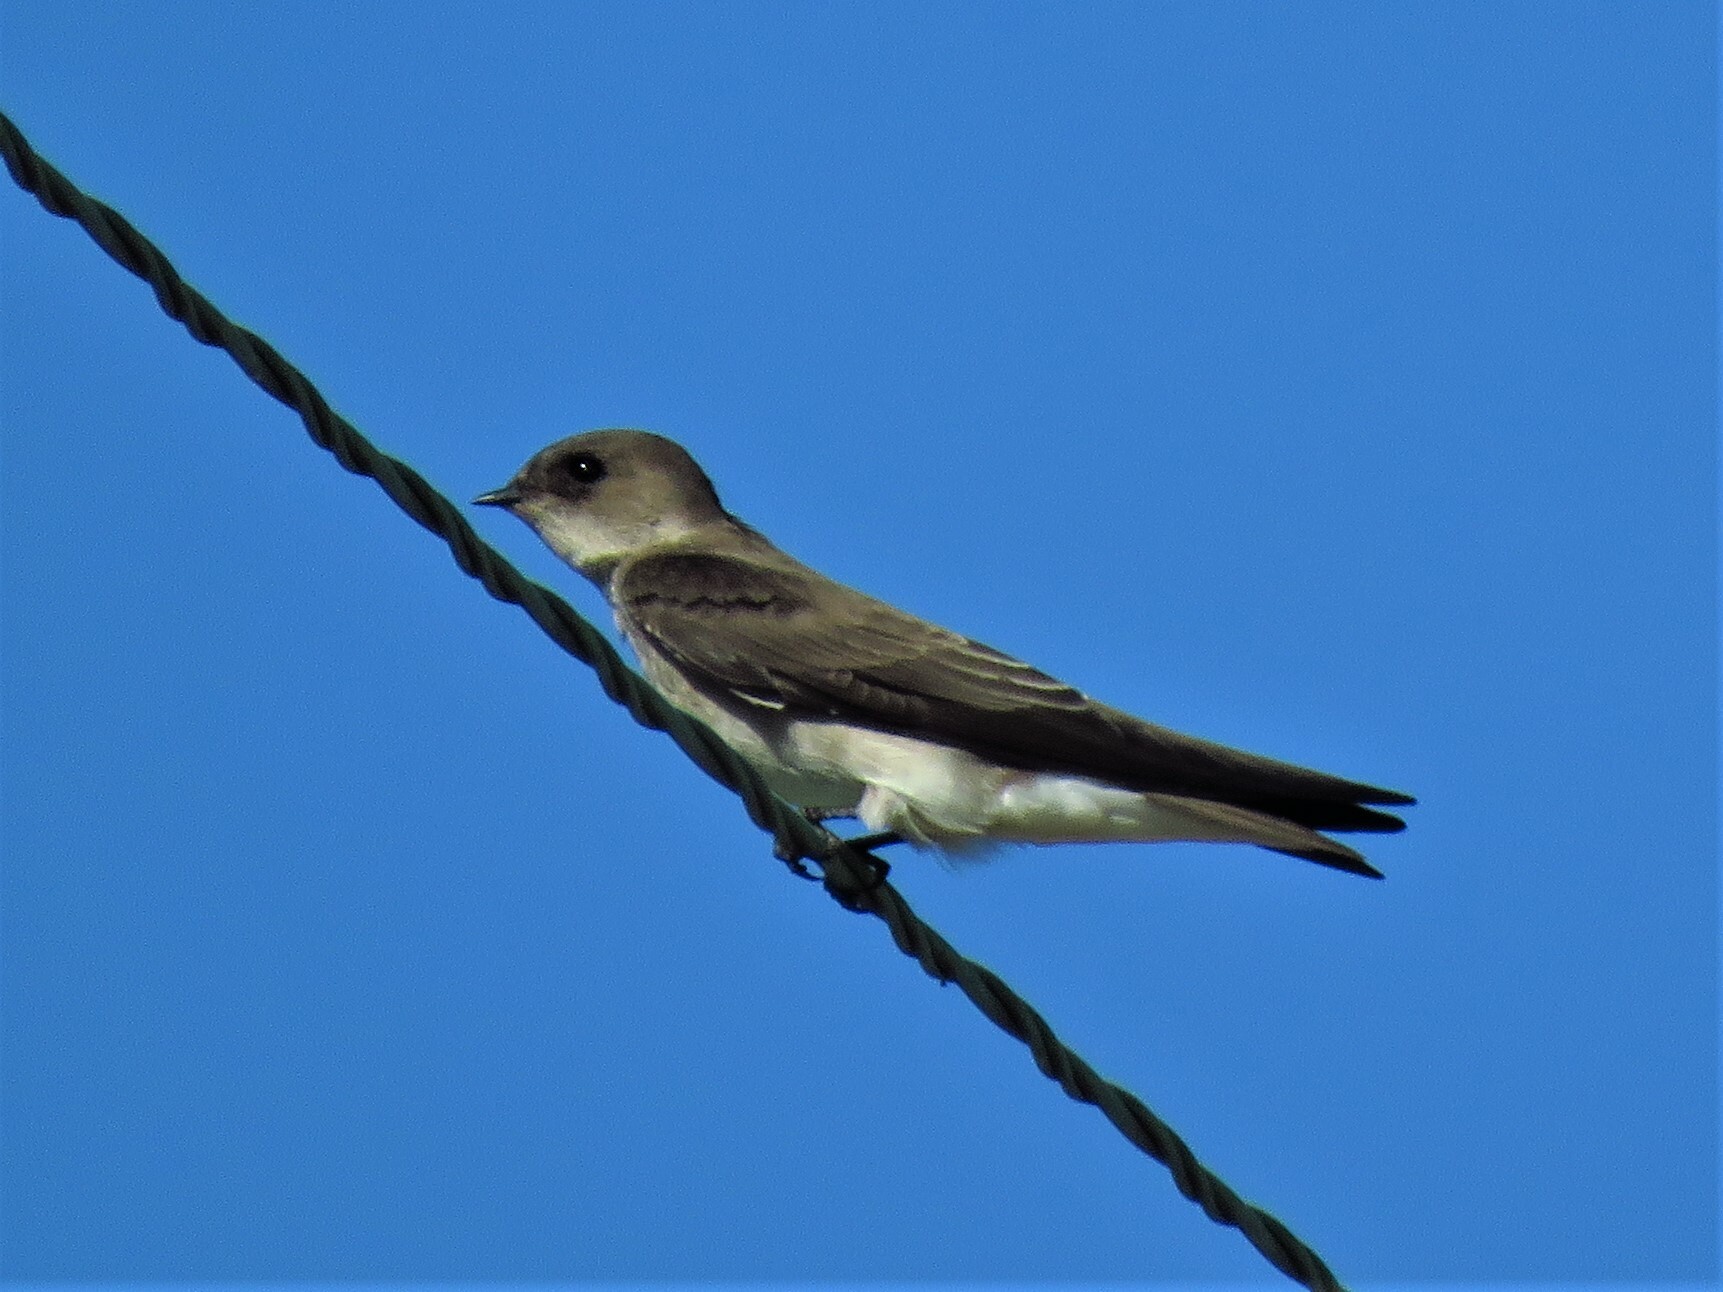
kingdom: Animalia
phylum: Chordata
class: Aves
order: Passeriformes
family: Hirundinidae
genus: Stelgidopteryx
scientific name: Stelgidopteryx serripennis
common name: Northern rough-winged swallow
